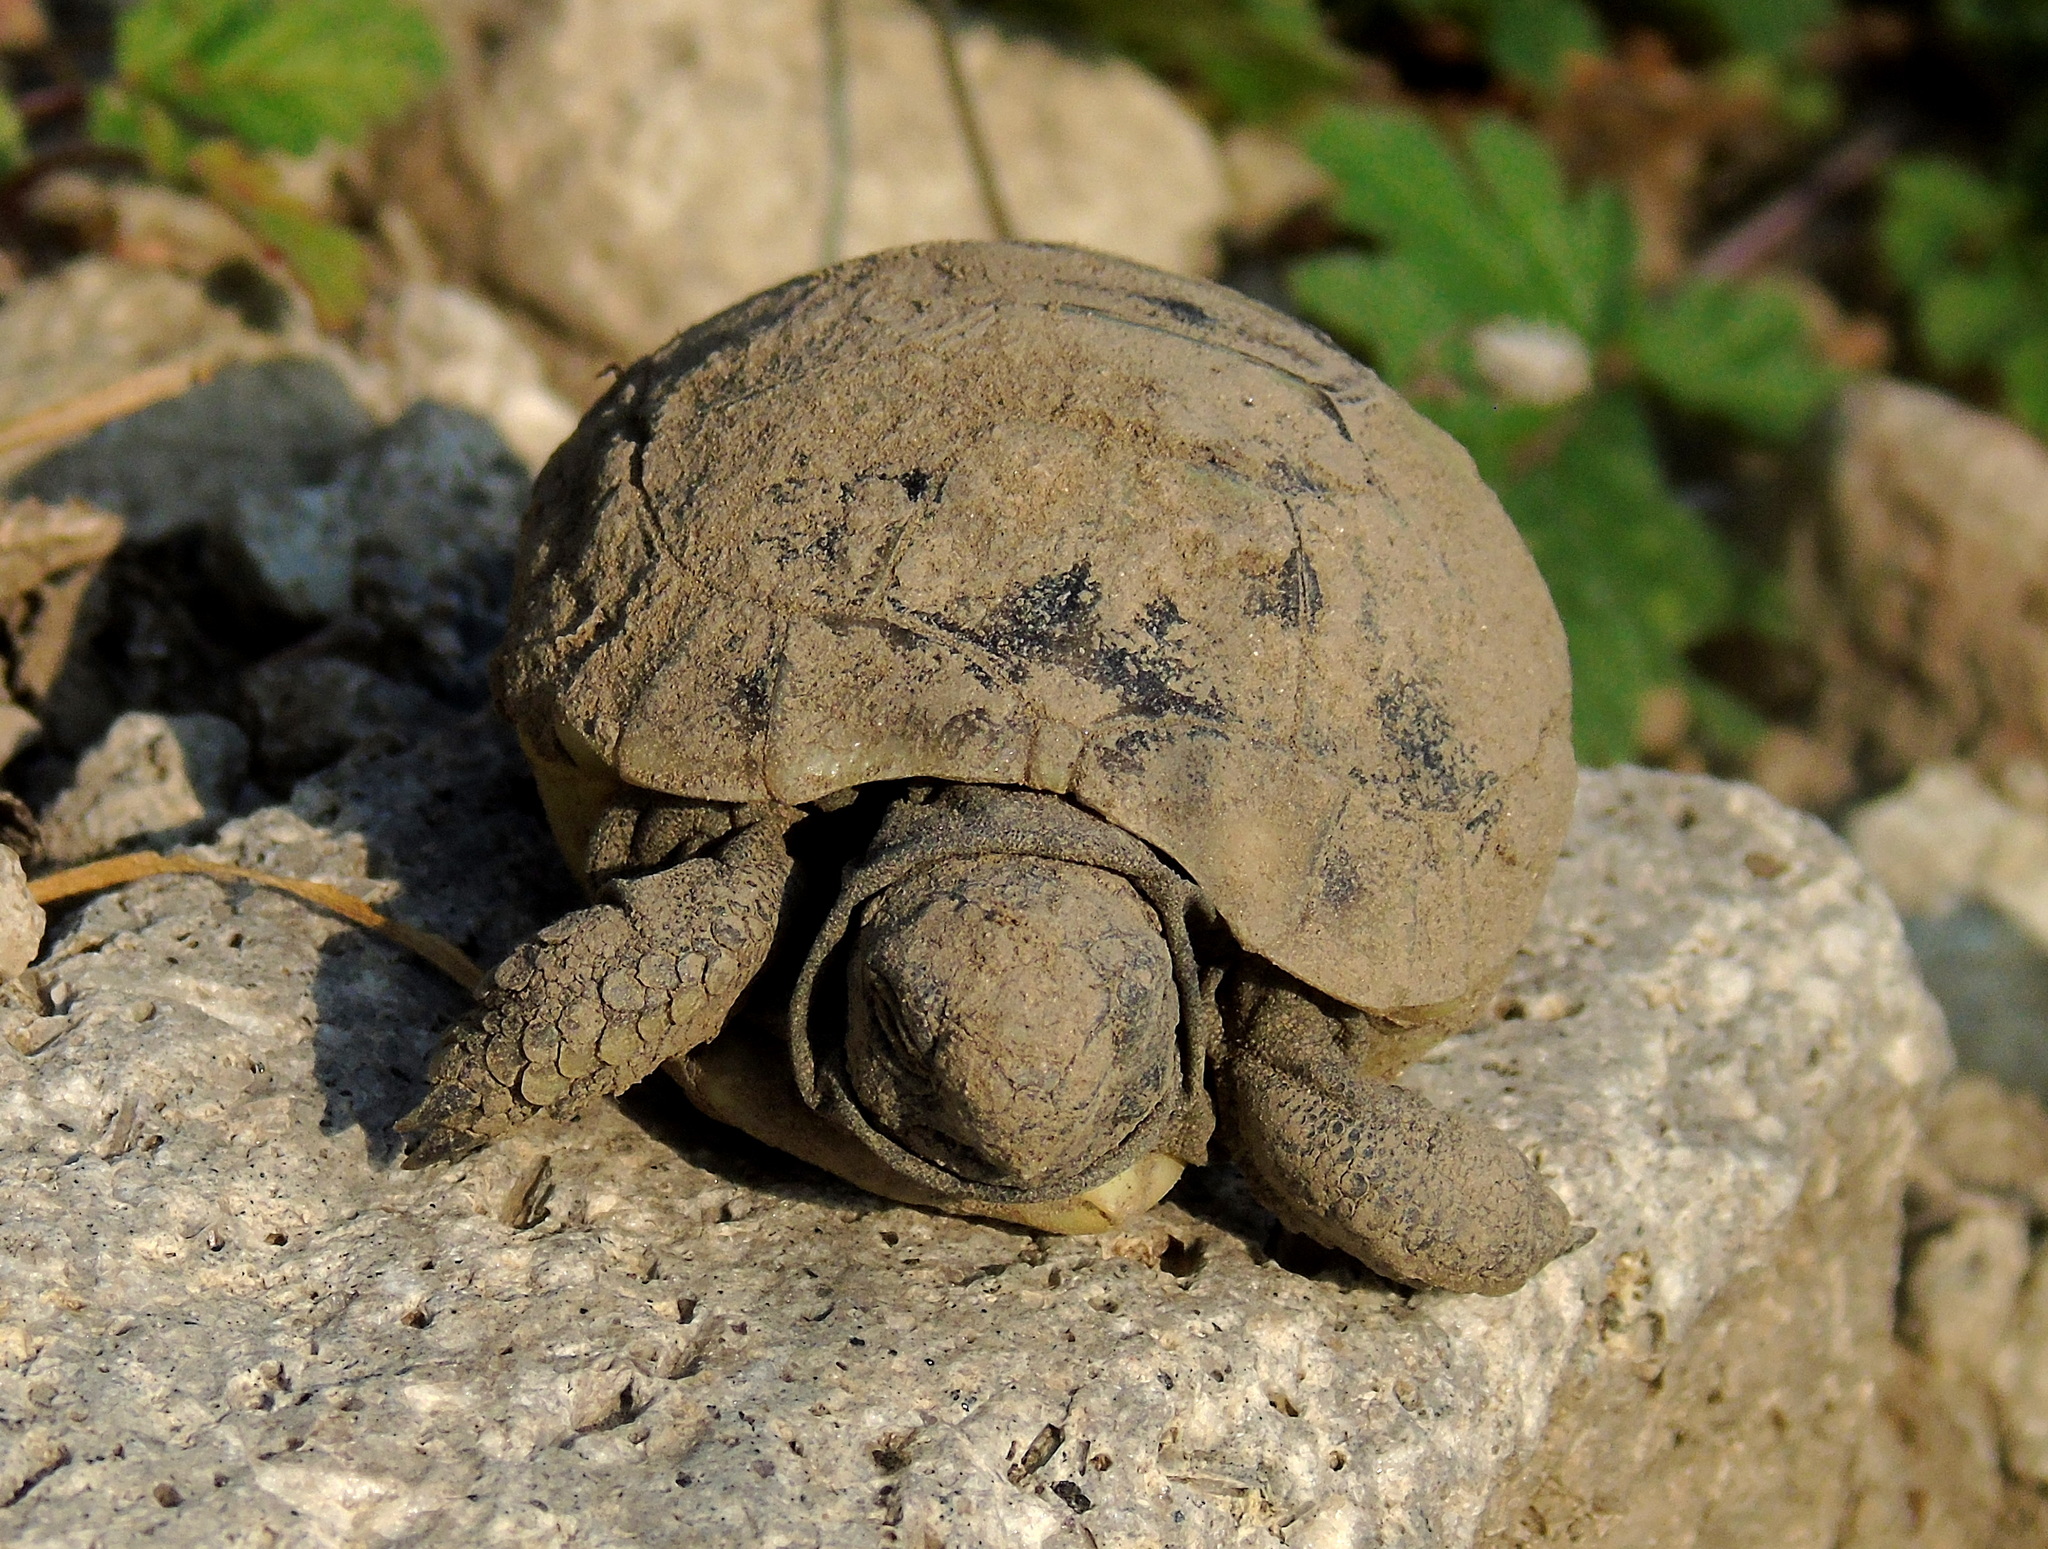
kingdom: Animalia
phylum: Chordata
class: Testudines
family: Testudinidae
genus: Testudo
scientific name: Testudo hermanni
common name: Hermann's tortoise
